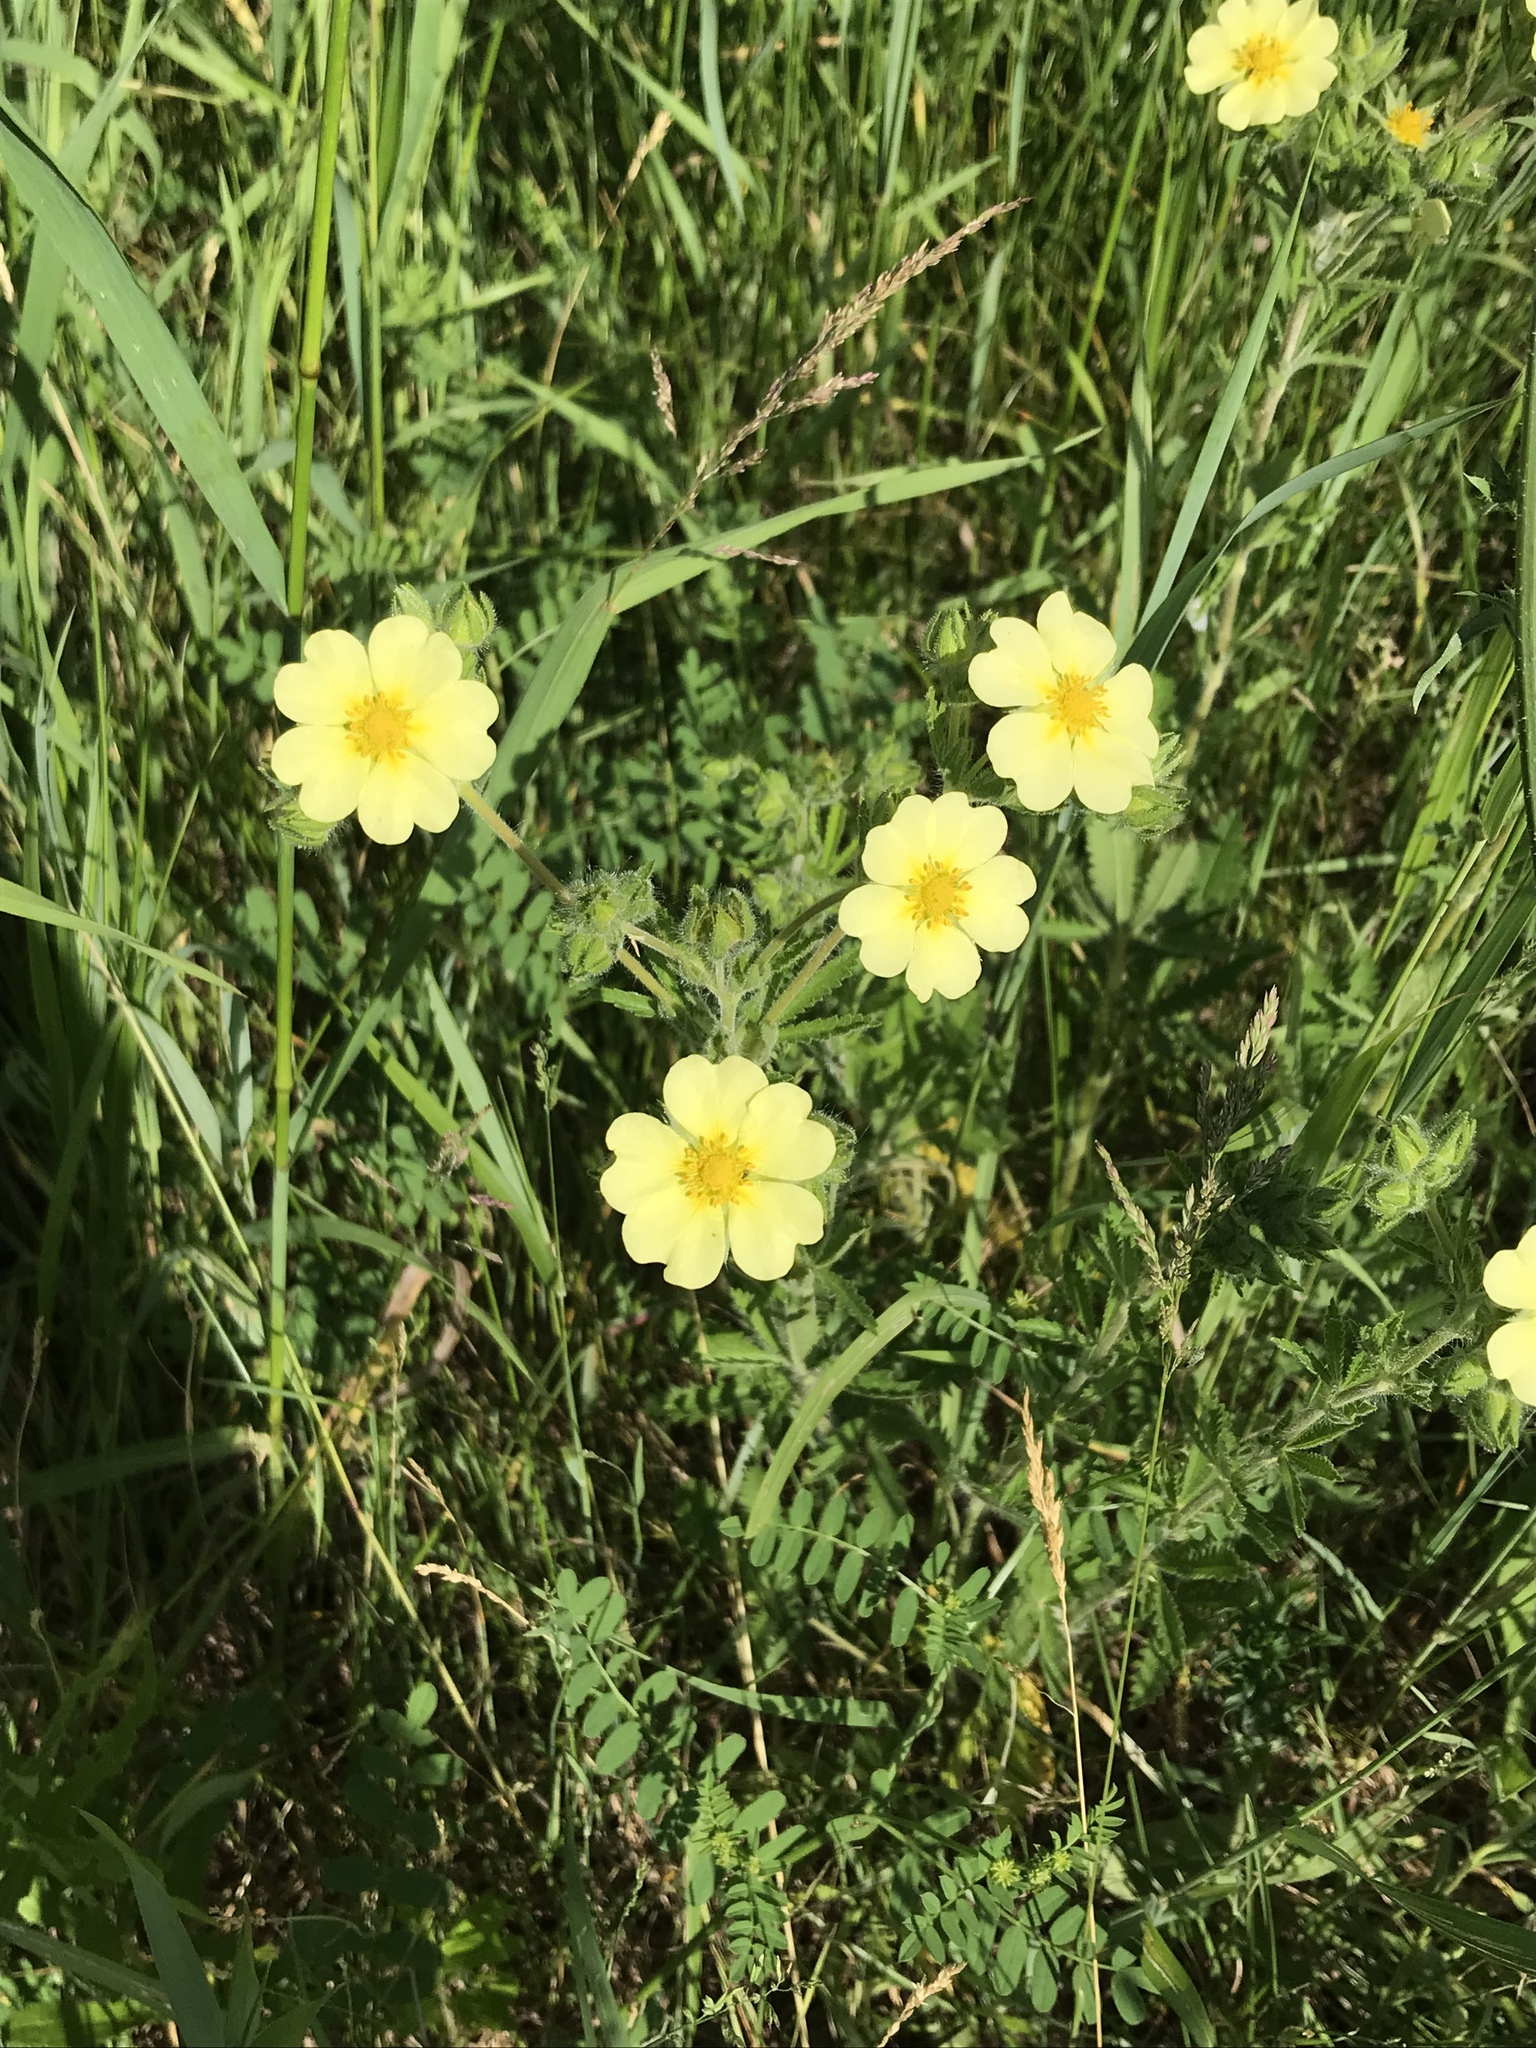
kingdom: Plantae
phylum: Tracheophyta
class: Magnoliopsida
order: Rosales
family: Rosaceae
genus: Potentilla
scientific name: Potentilla recta
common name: Sulphur cinquefoil
